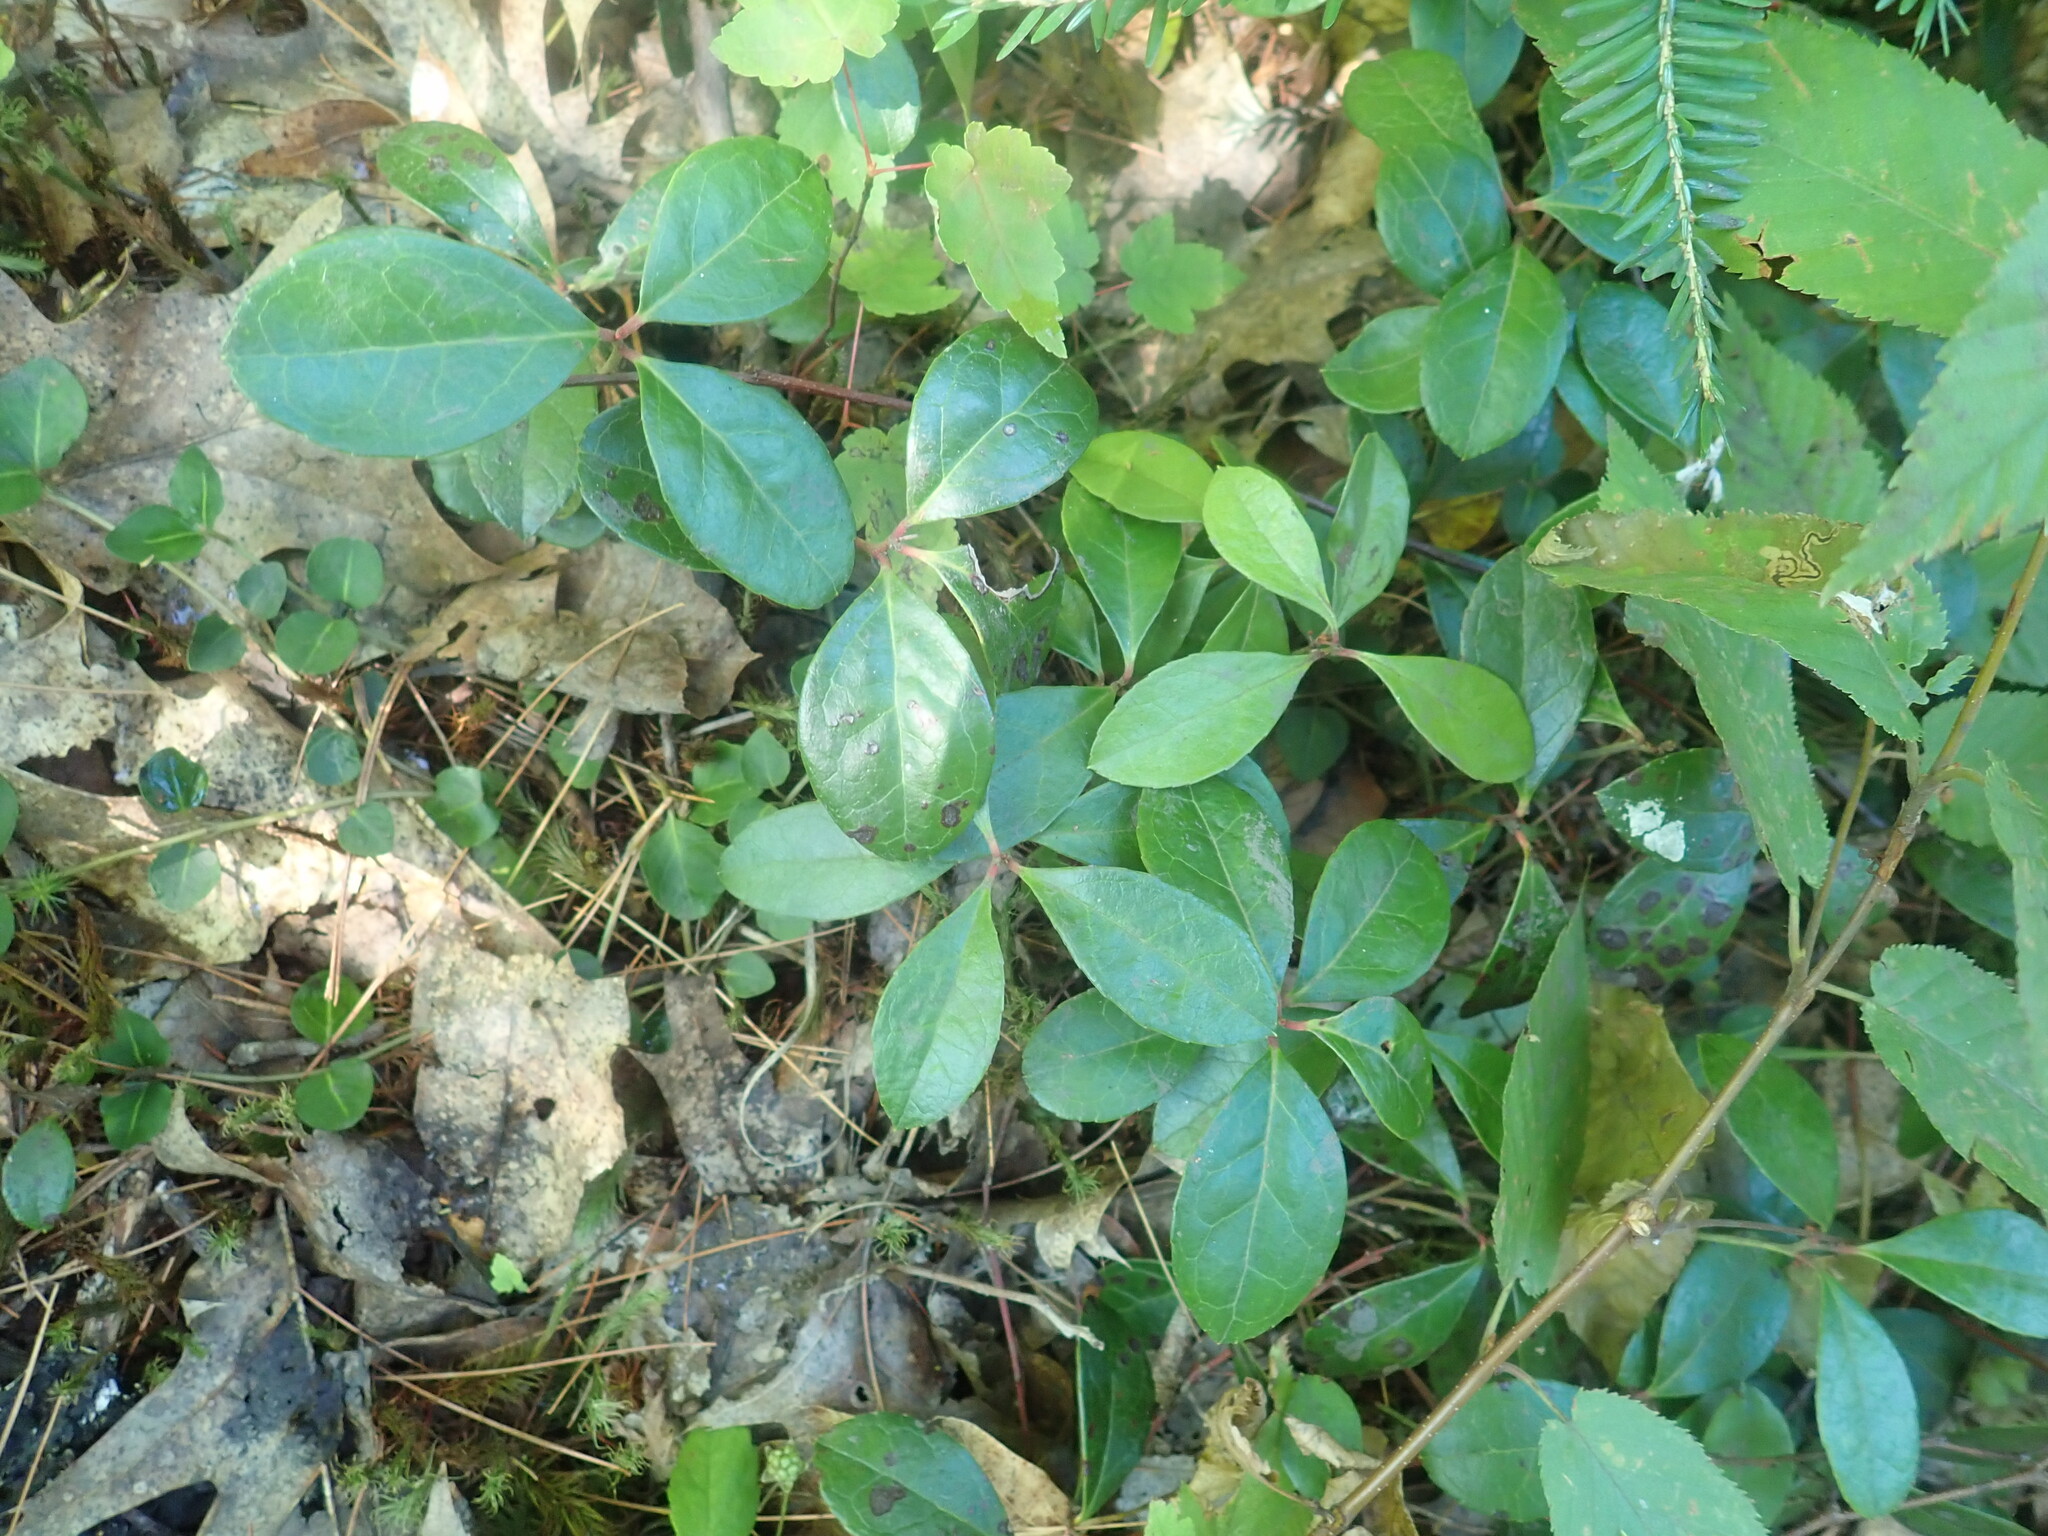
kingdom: Plantae
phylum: Tracheophyta
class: Magnoliopsida
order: Ericales
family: Ericaceae
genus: Gaultheria
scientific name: Gaultheria procumbens
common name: Checkerberry
